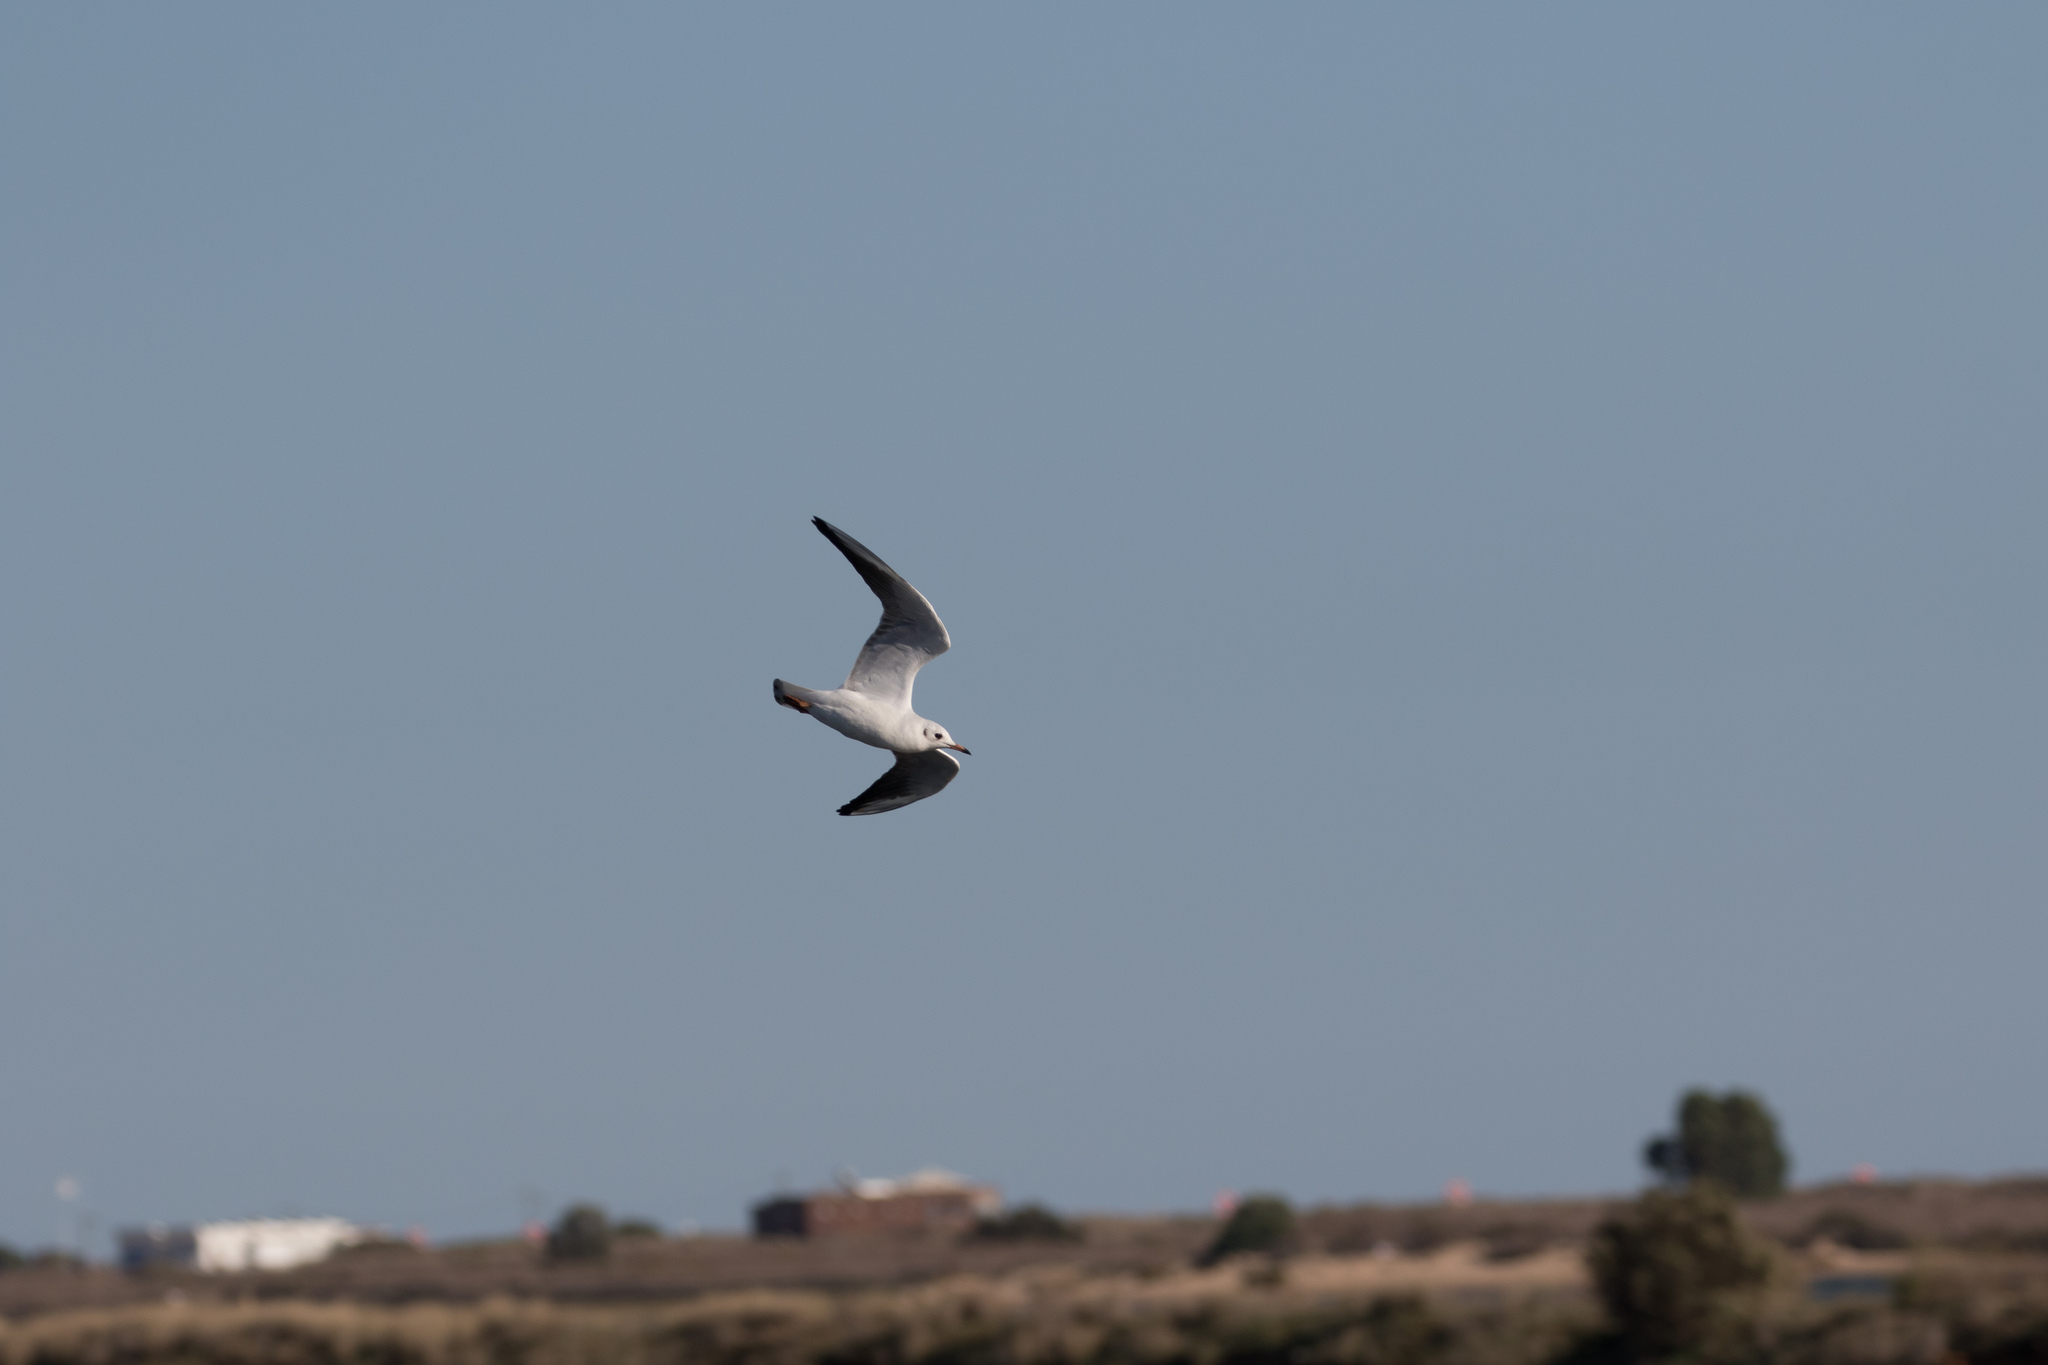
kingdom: Animalia
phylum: Chordata
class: Aves
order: Charadriiformes
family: Laridae
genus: Chroicocephalus
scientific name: Chroicocephalus ridibundus
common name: Black-headed gull
